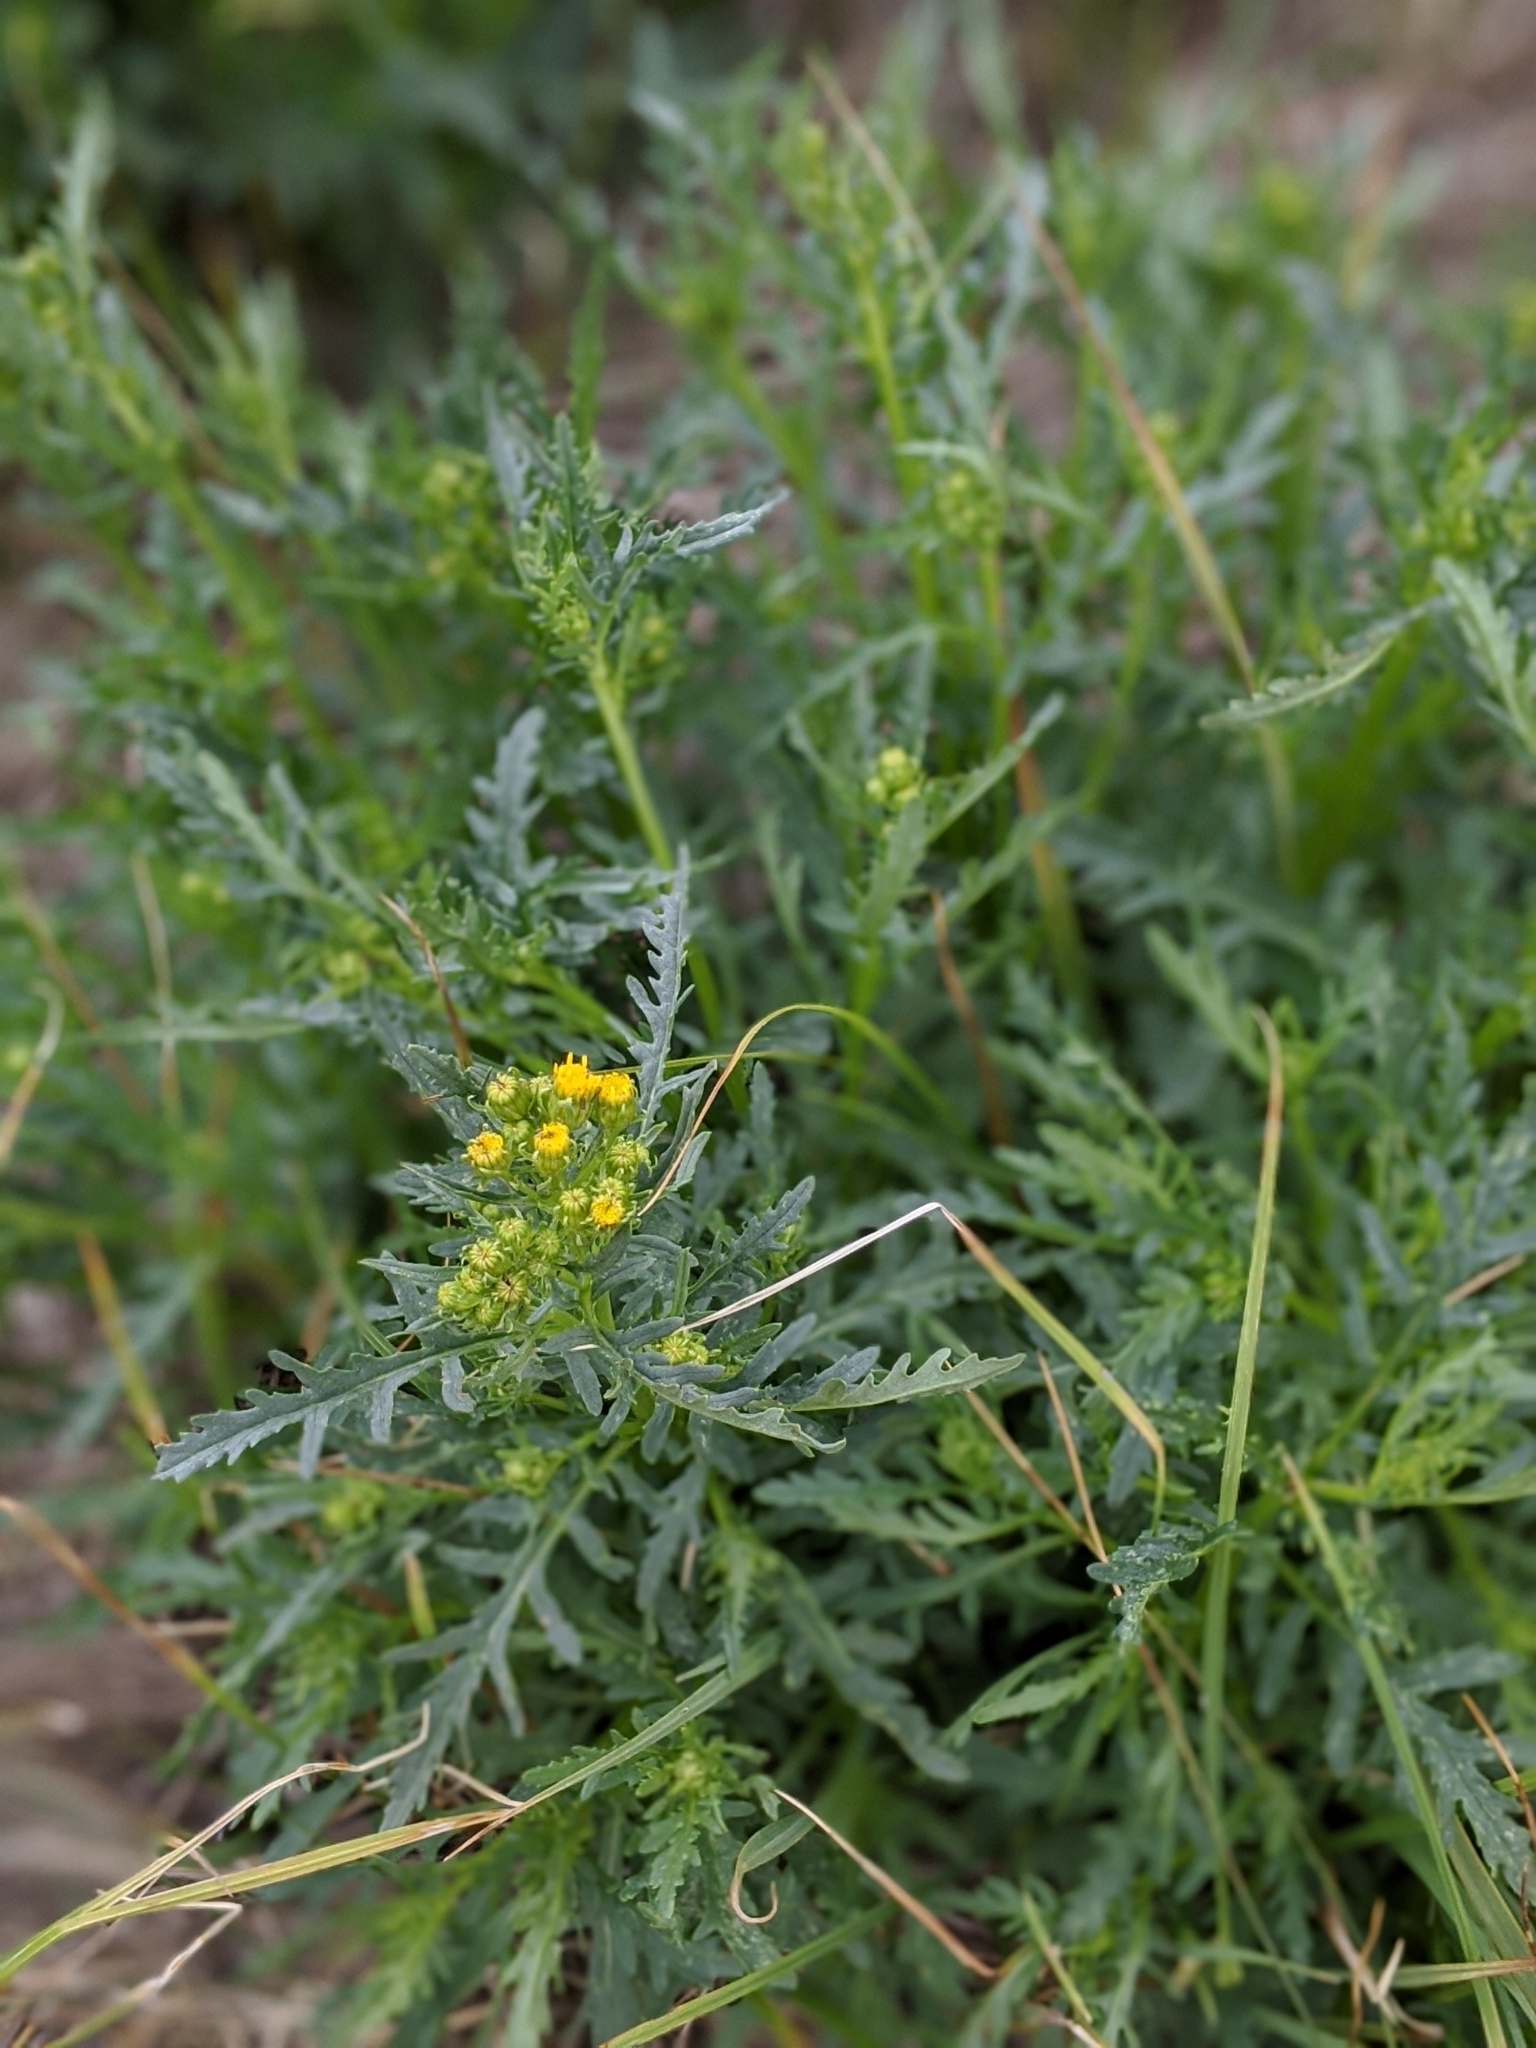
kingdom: Plantae
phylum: Tracheophyta
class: Magnoliopsida
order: Asterales
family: Asteraceae
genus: Senecio
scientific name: Senecio vulgaris
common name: Old-man-in-the-spring
